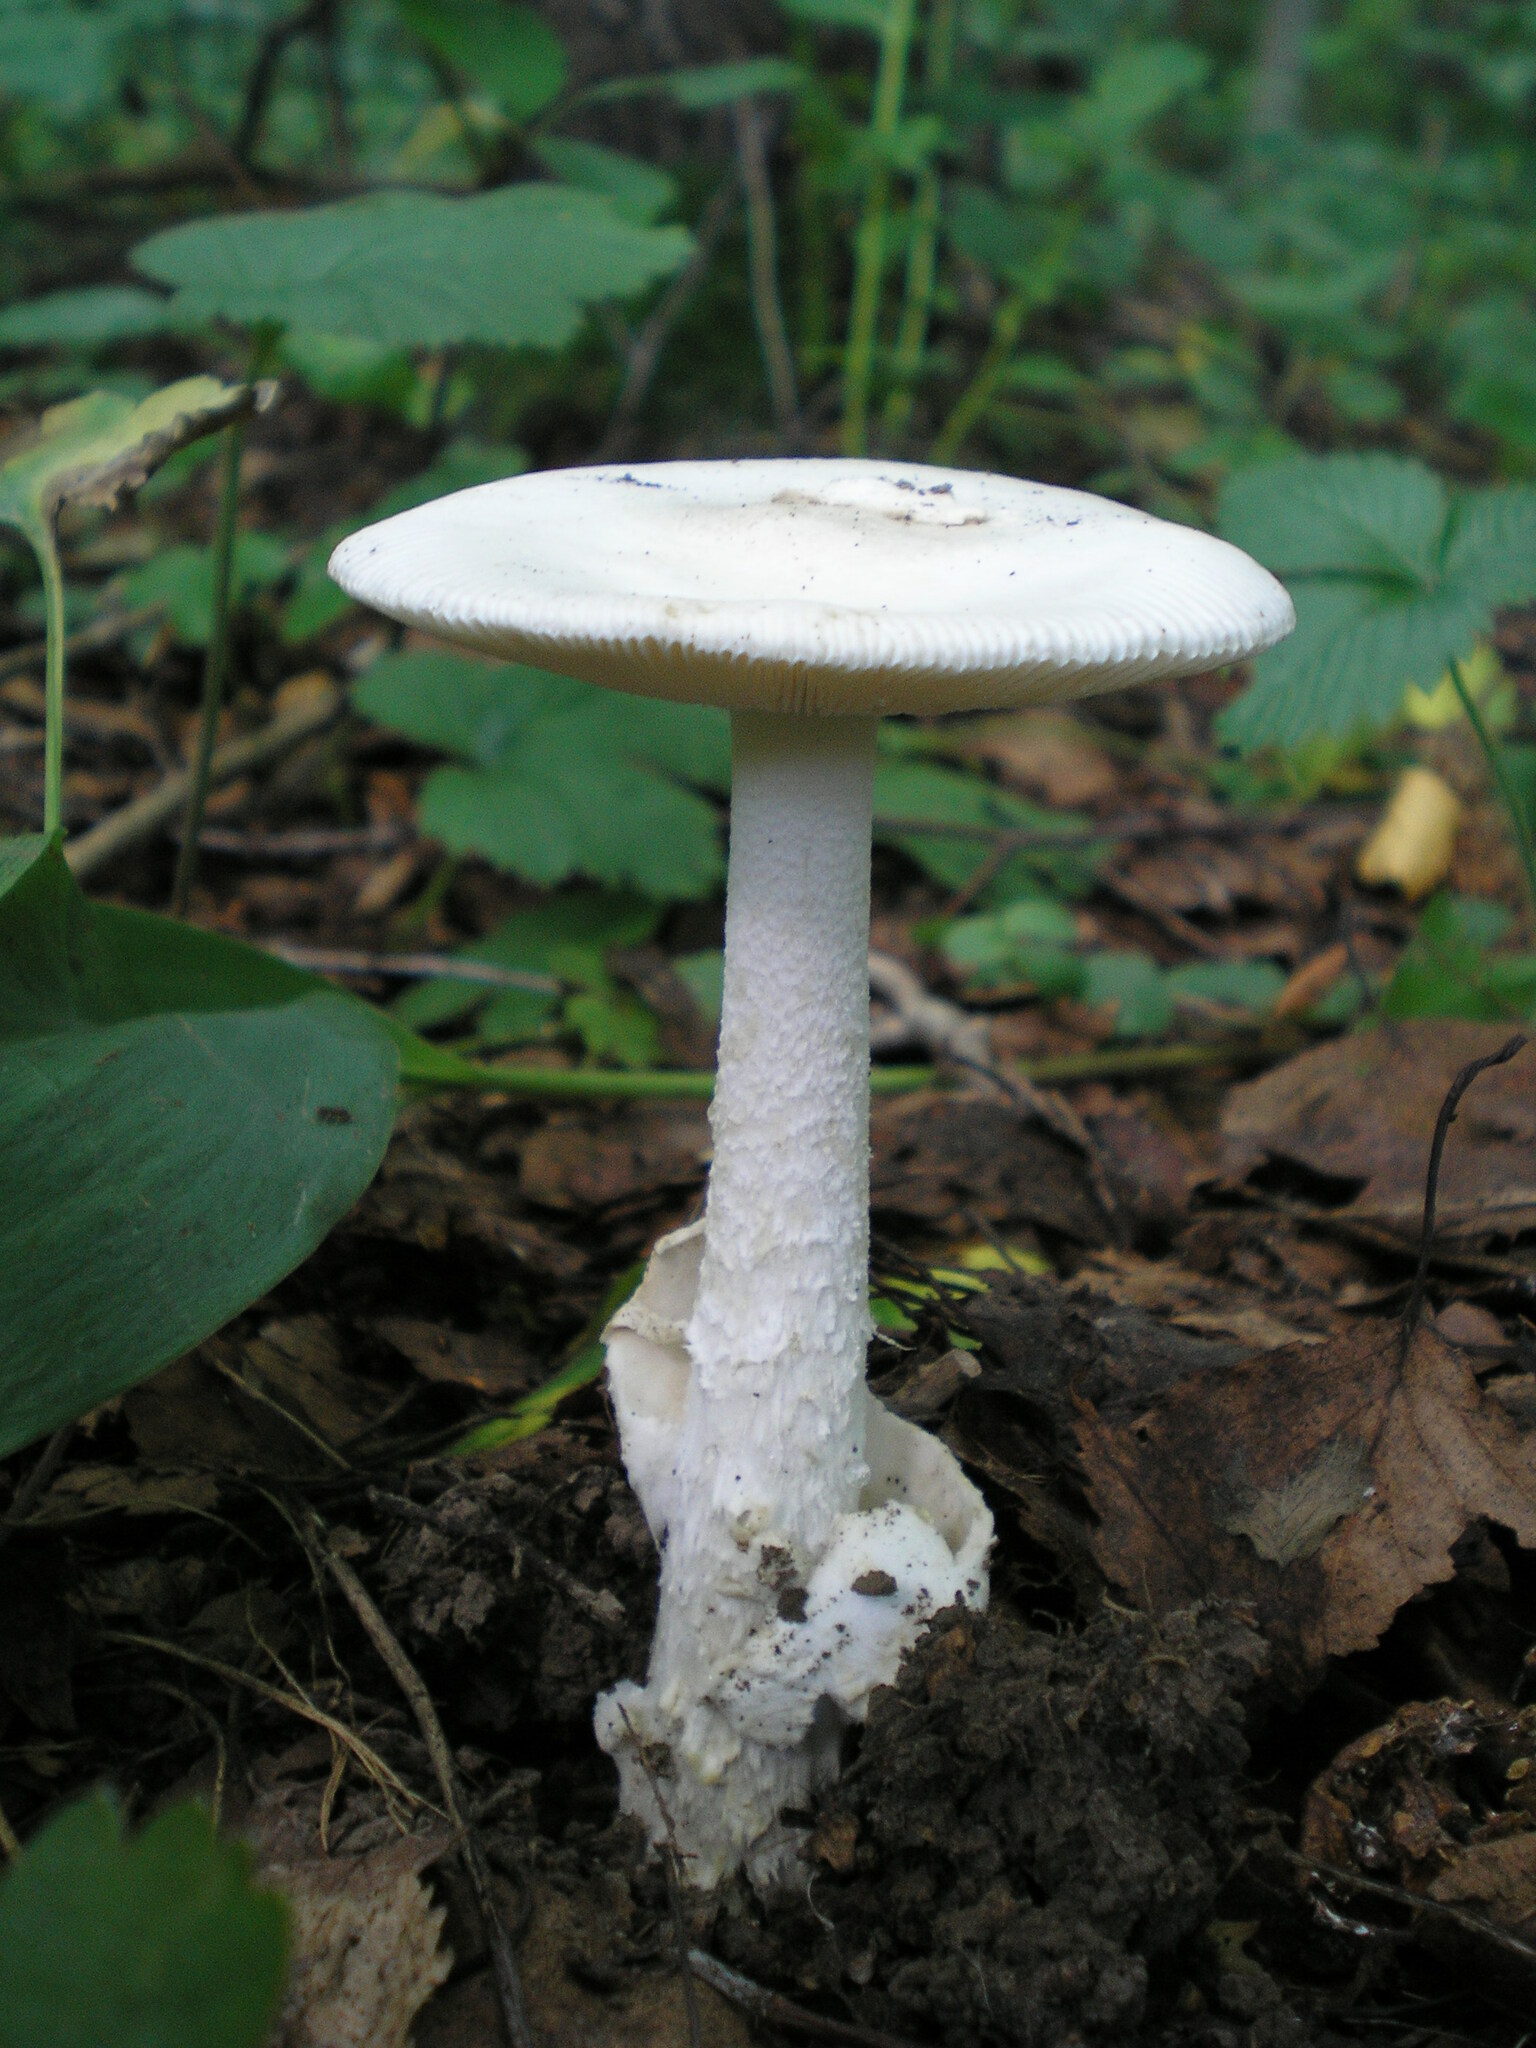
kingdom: Fungi
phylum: Basidiomycota
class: Agaricomycetes
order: Agaricales
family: Amanitaceae
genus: Amanita
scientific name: Amanita
